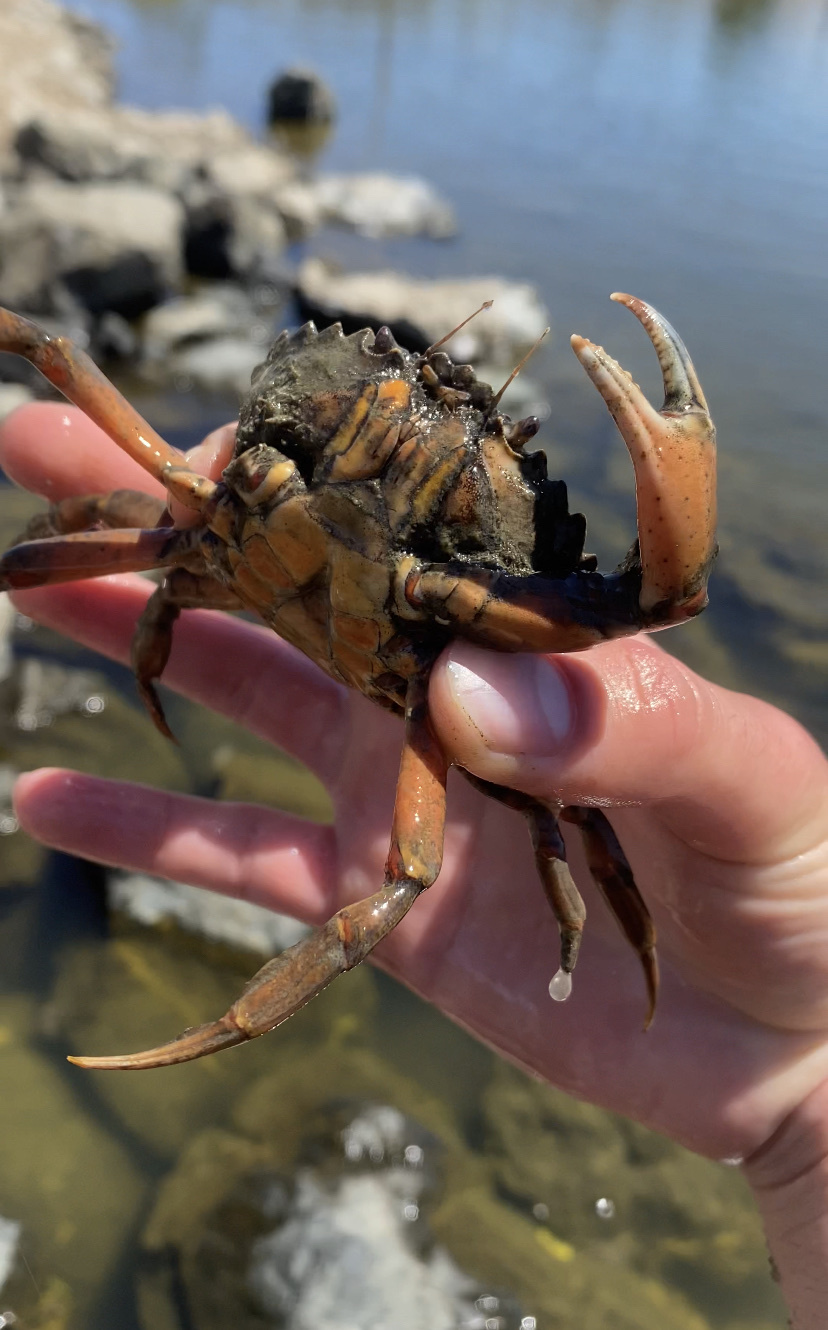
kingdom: Animalia
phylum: Arthropoda
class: Malacostraca
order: Decapoda
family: Carcinidae
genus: Carcinus
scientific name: Carcinus maenas
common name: European green crab
